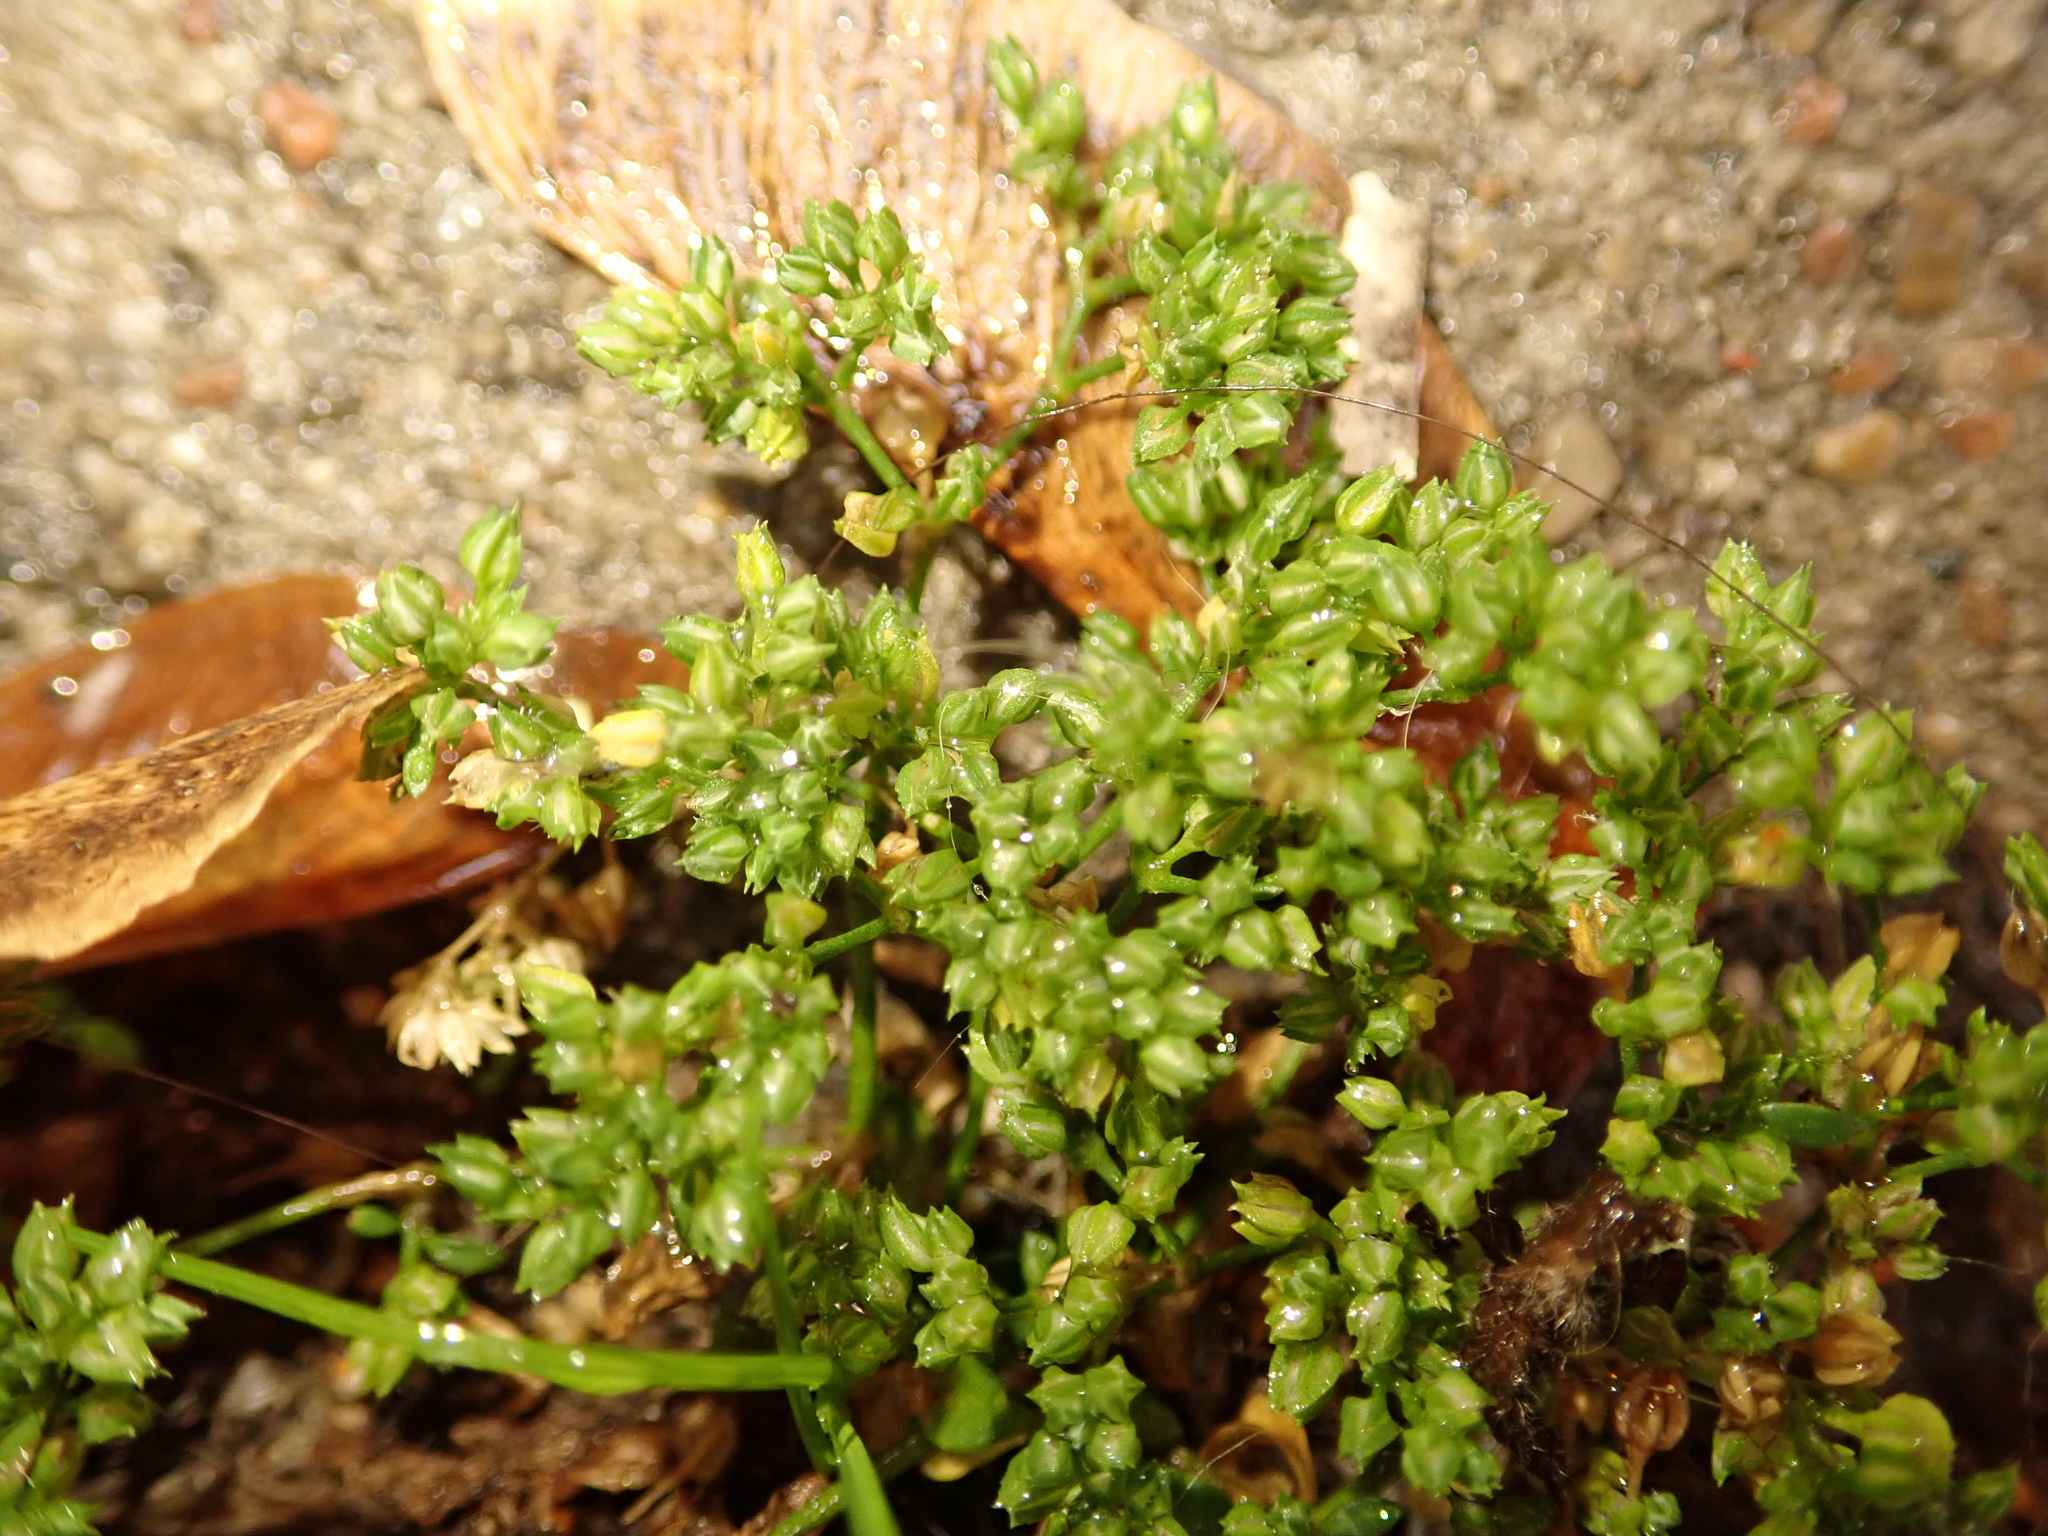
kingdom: Plantae
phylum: Tracheophyta
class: Magnoliopsida
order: Caryophyllales
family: Caryophyllaceae
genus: Polycarpon
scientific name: Polycarpon tetraphyllum
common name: Four-leaved all-seed
